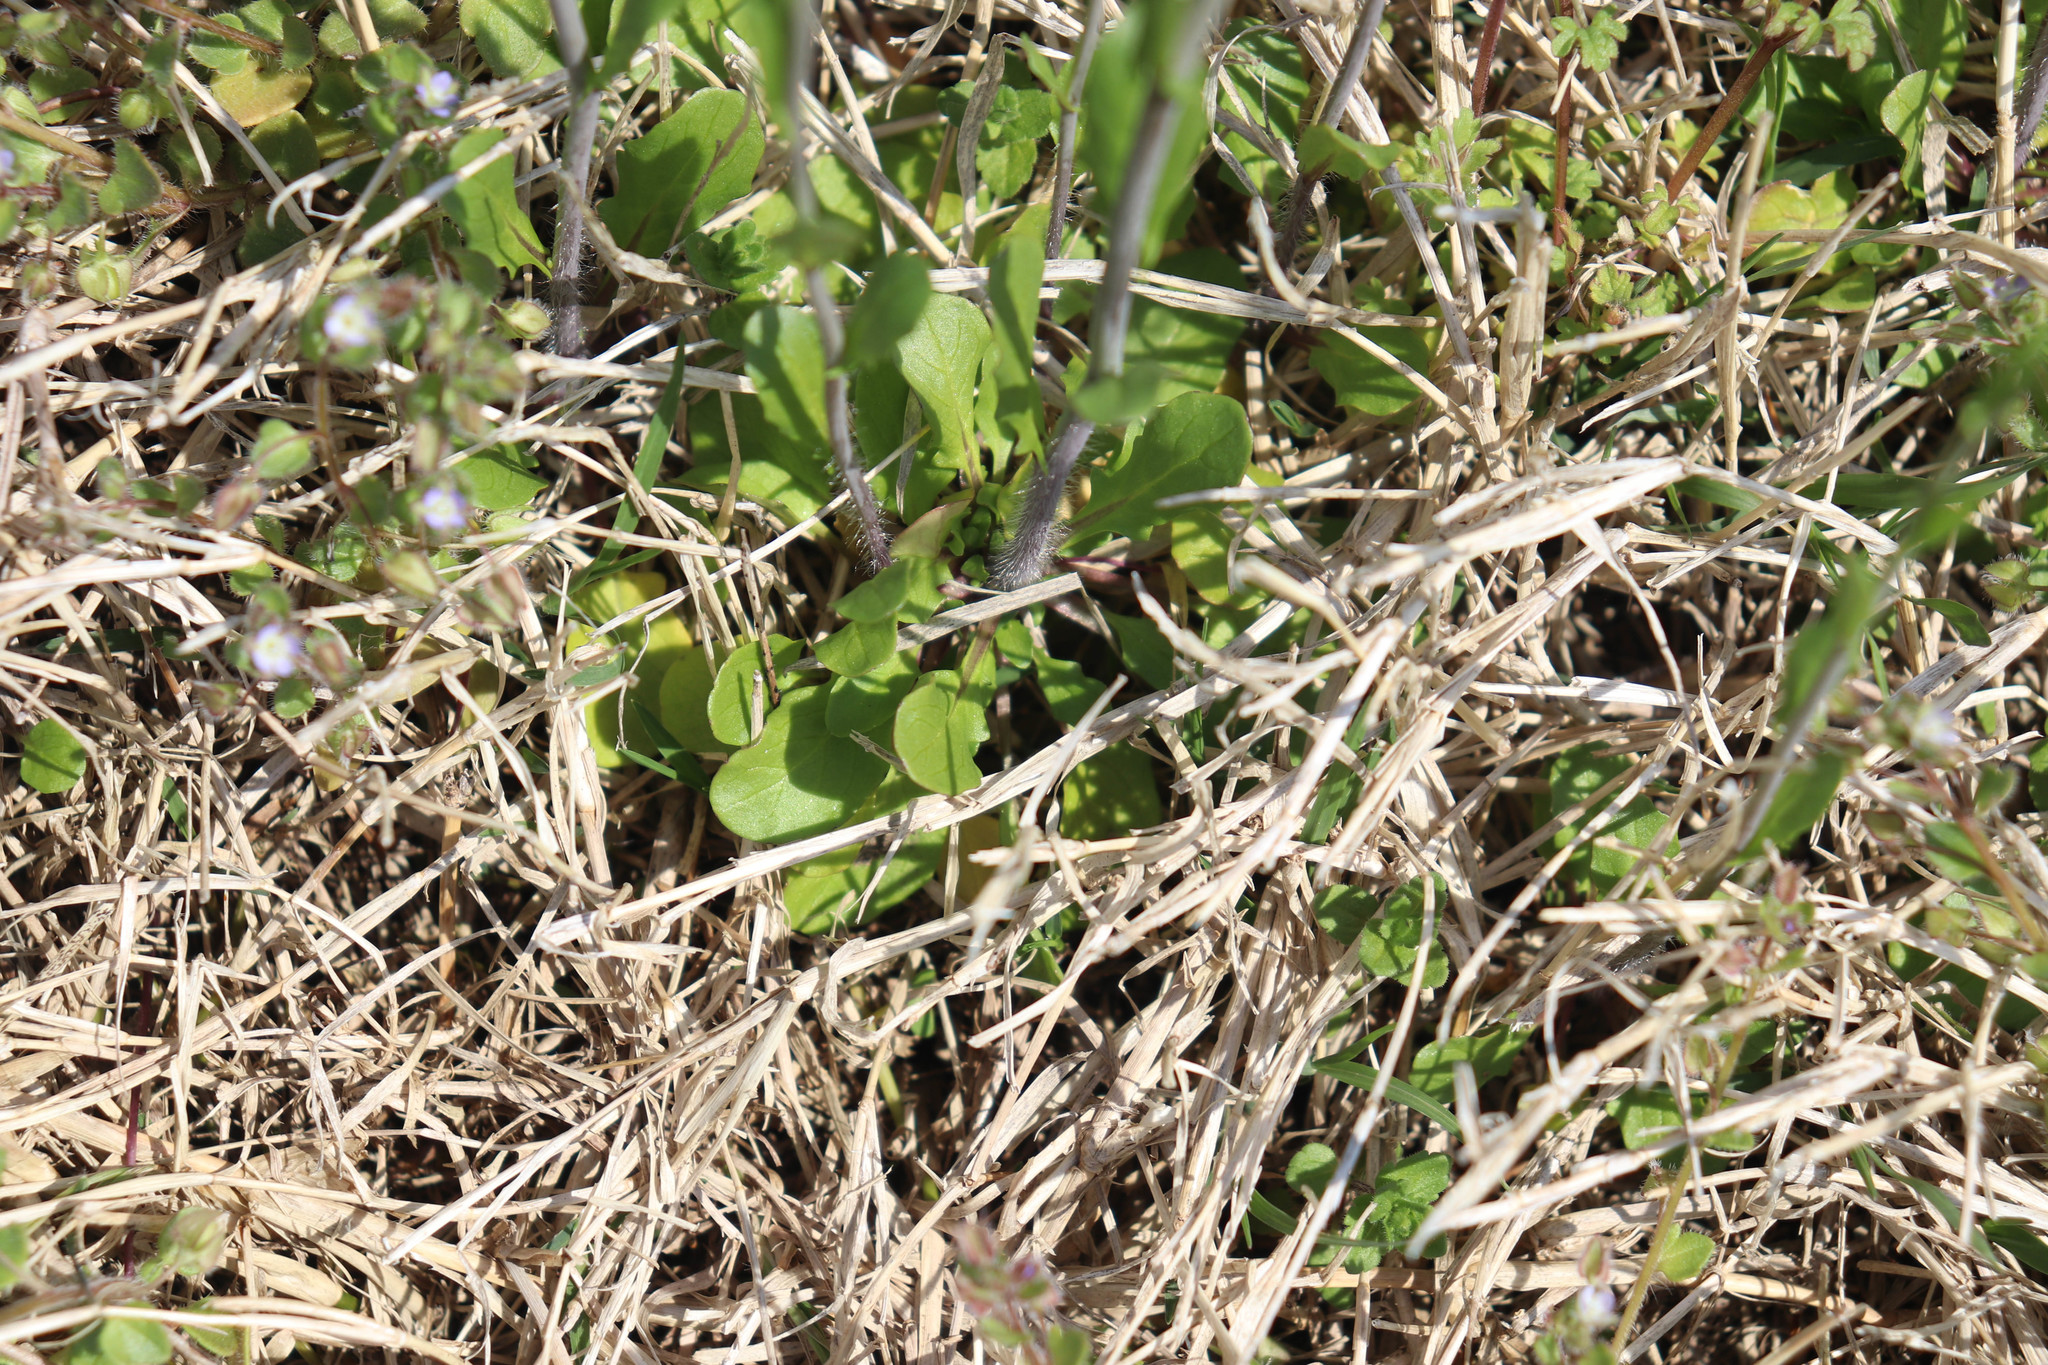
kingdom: Plantae
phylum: Tracheophyta
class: Magnoliopsida
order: Brassicales
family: Brassicaceae
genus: Mummenhoffia
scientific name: Mummenhoffia alliacea
